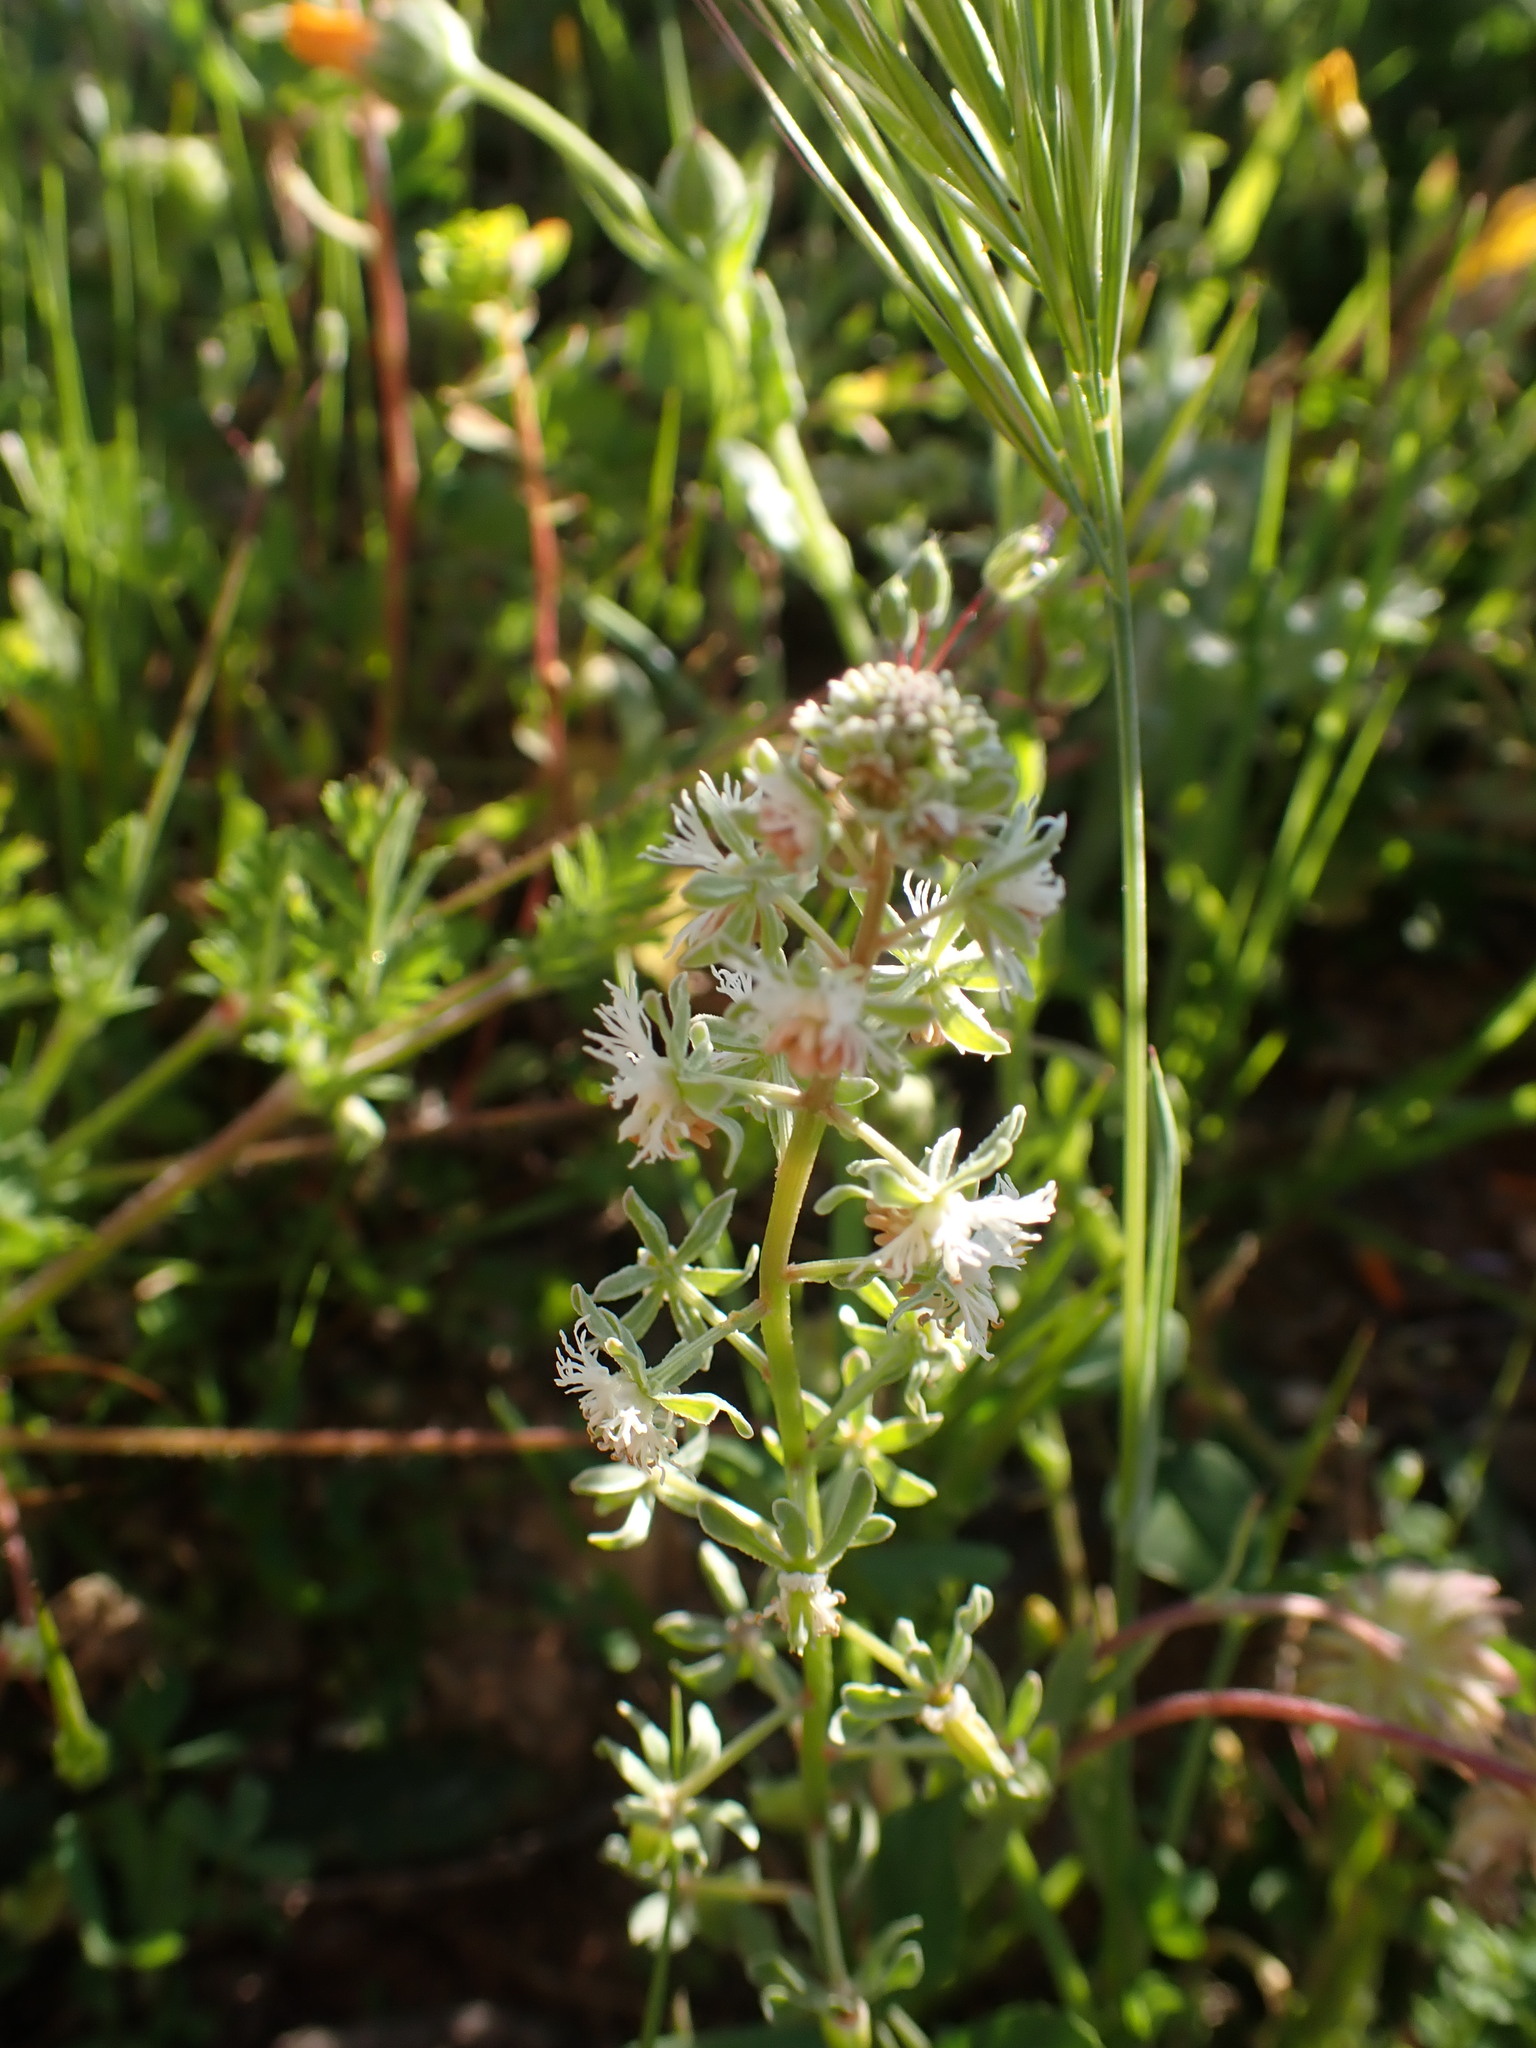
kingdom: Plantae
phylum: Tracheophyta
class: Magnoliopsida
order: Brassicales
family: Resedaceae
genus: Reseda
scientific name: Reseda phyteuma
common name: Corn mignonette
